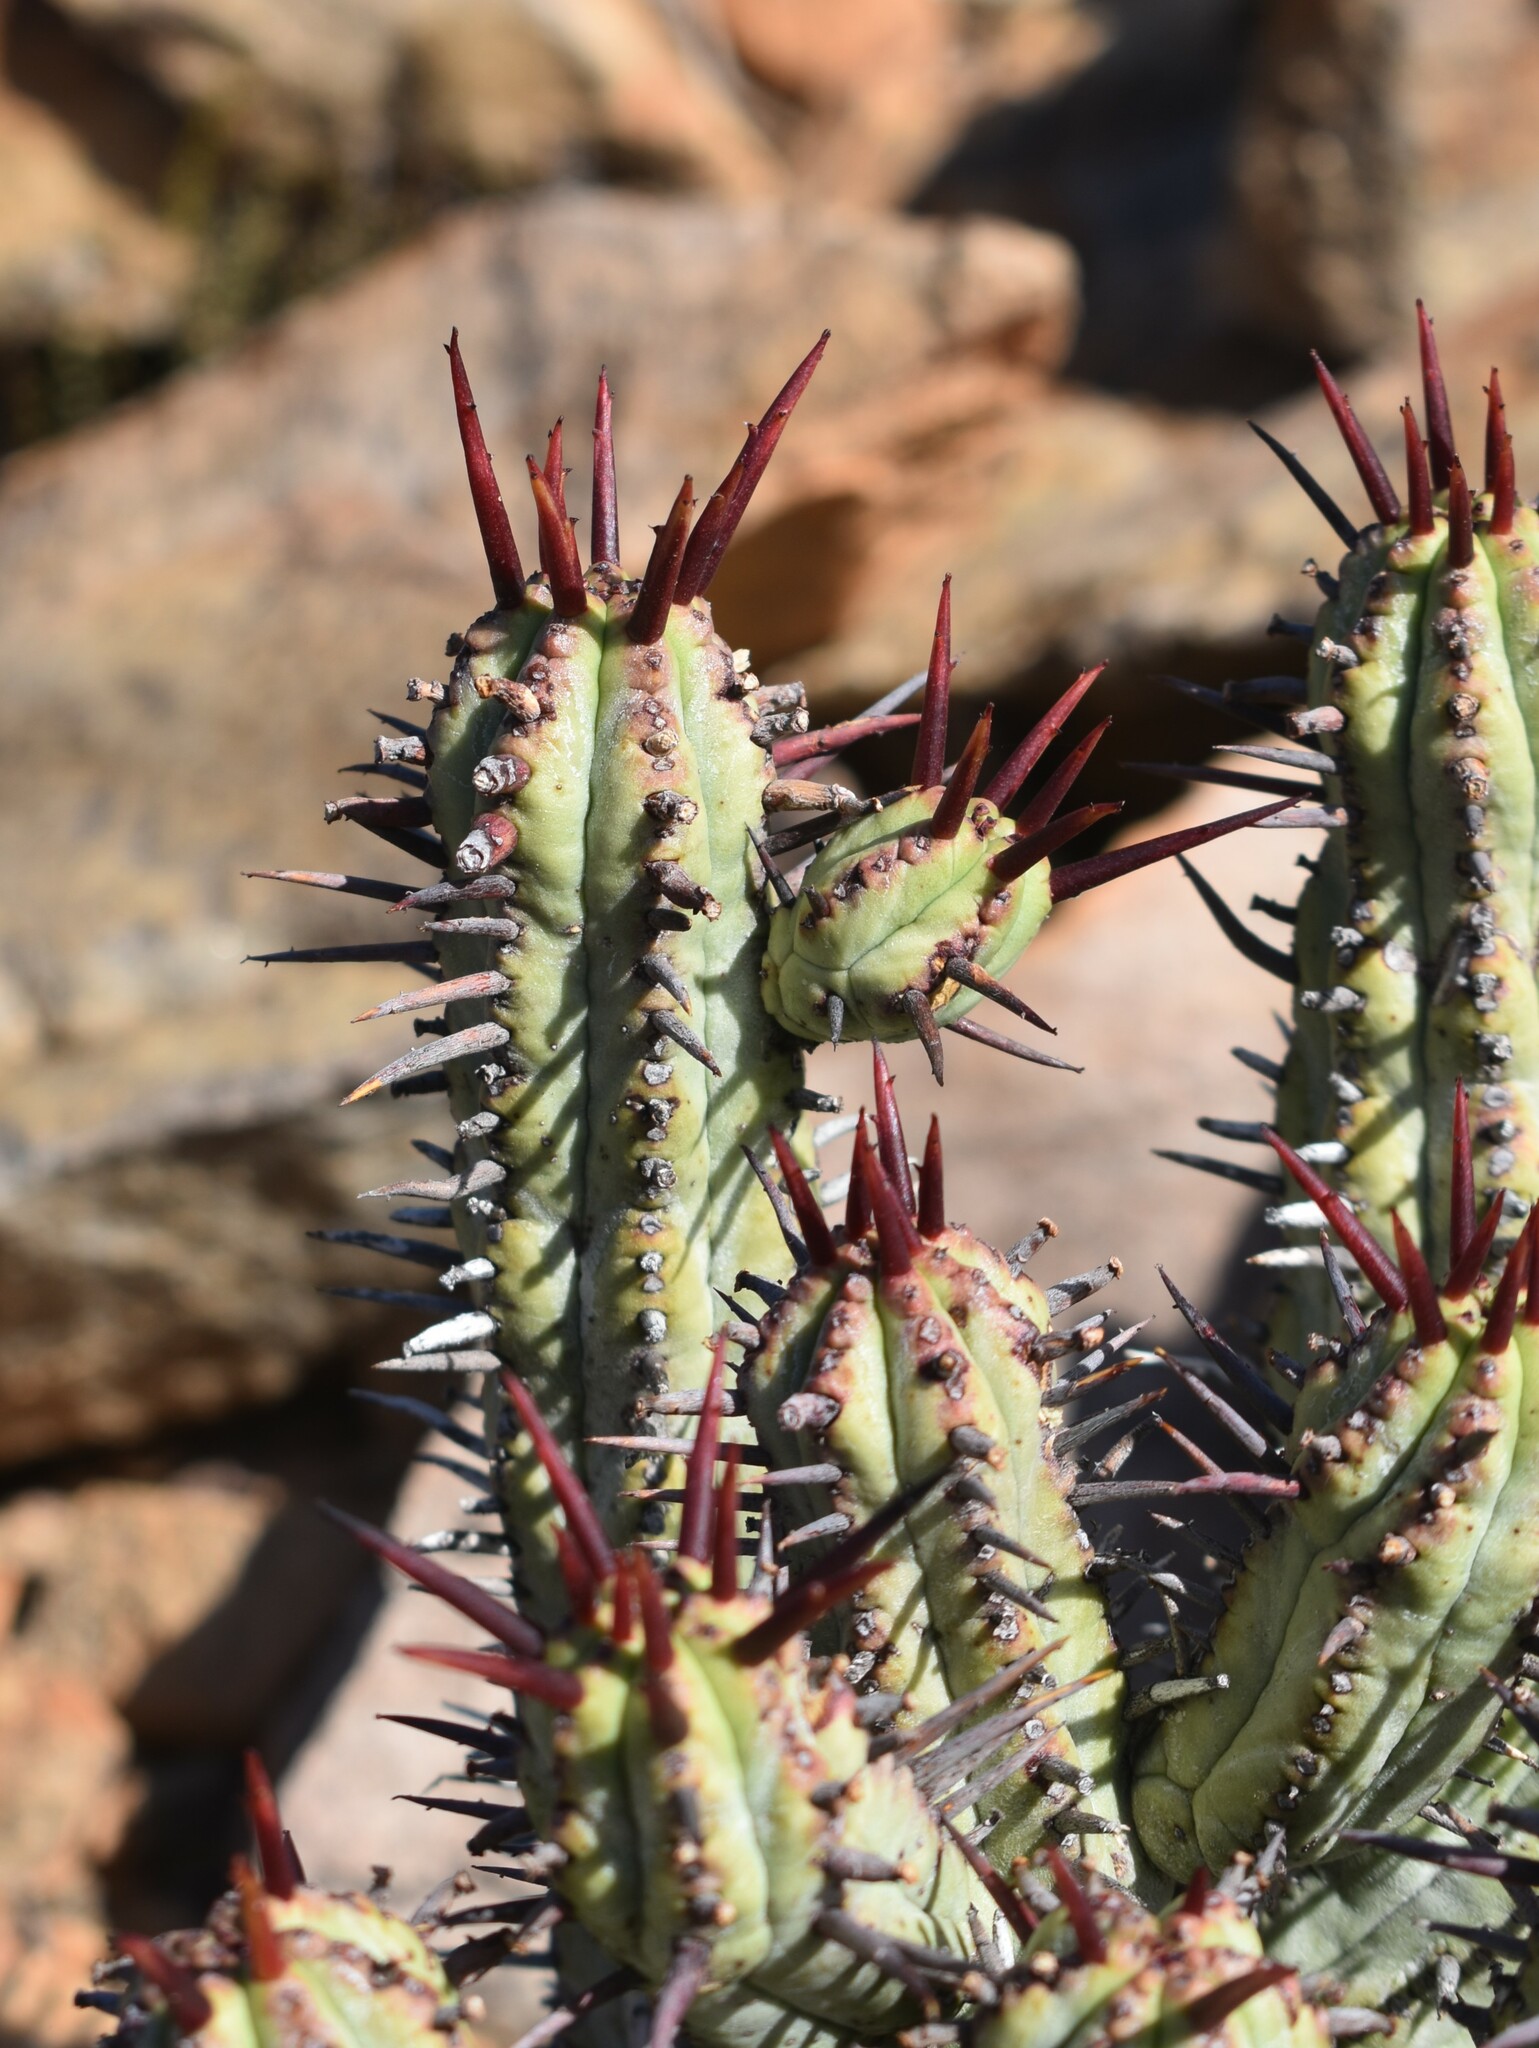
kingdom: Plantae
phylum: Tracheophyta
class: Magnoliopsida
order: Malpighiales
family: Euphorbiaceae
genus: Euphorbia
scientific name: Euphorbia heptagona
